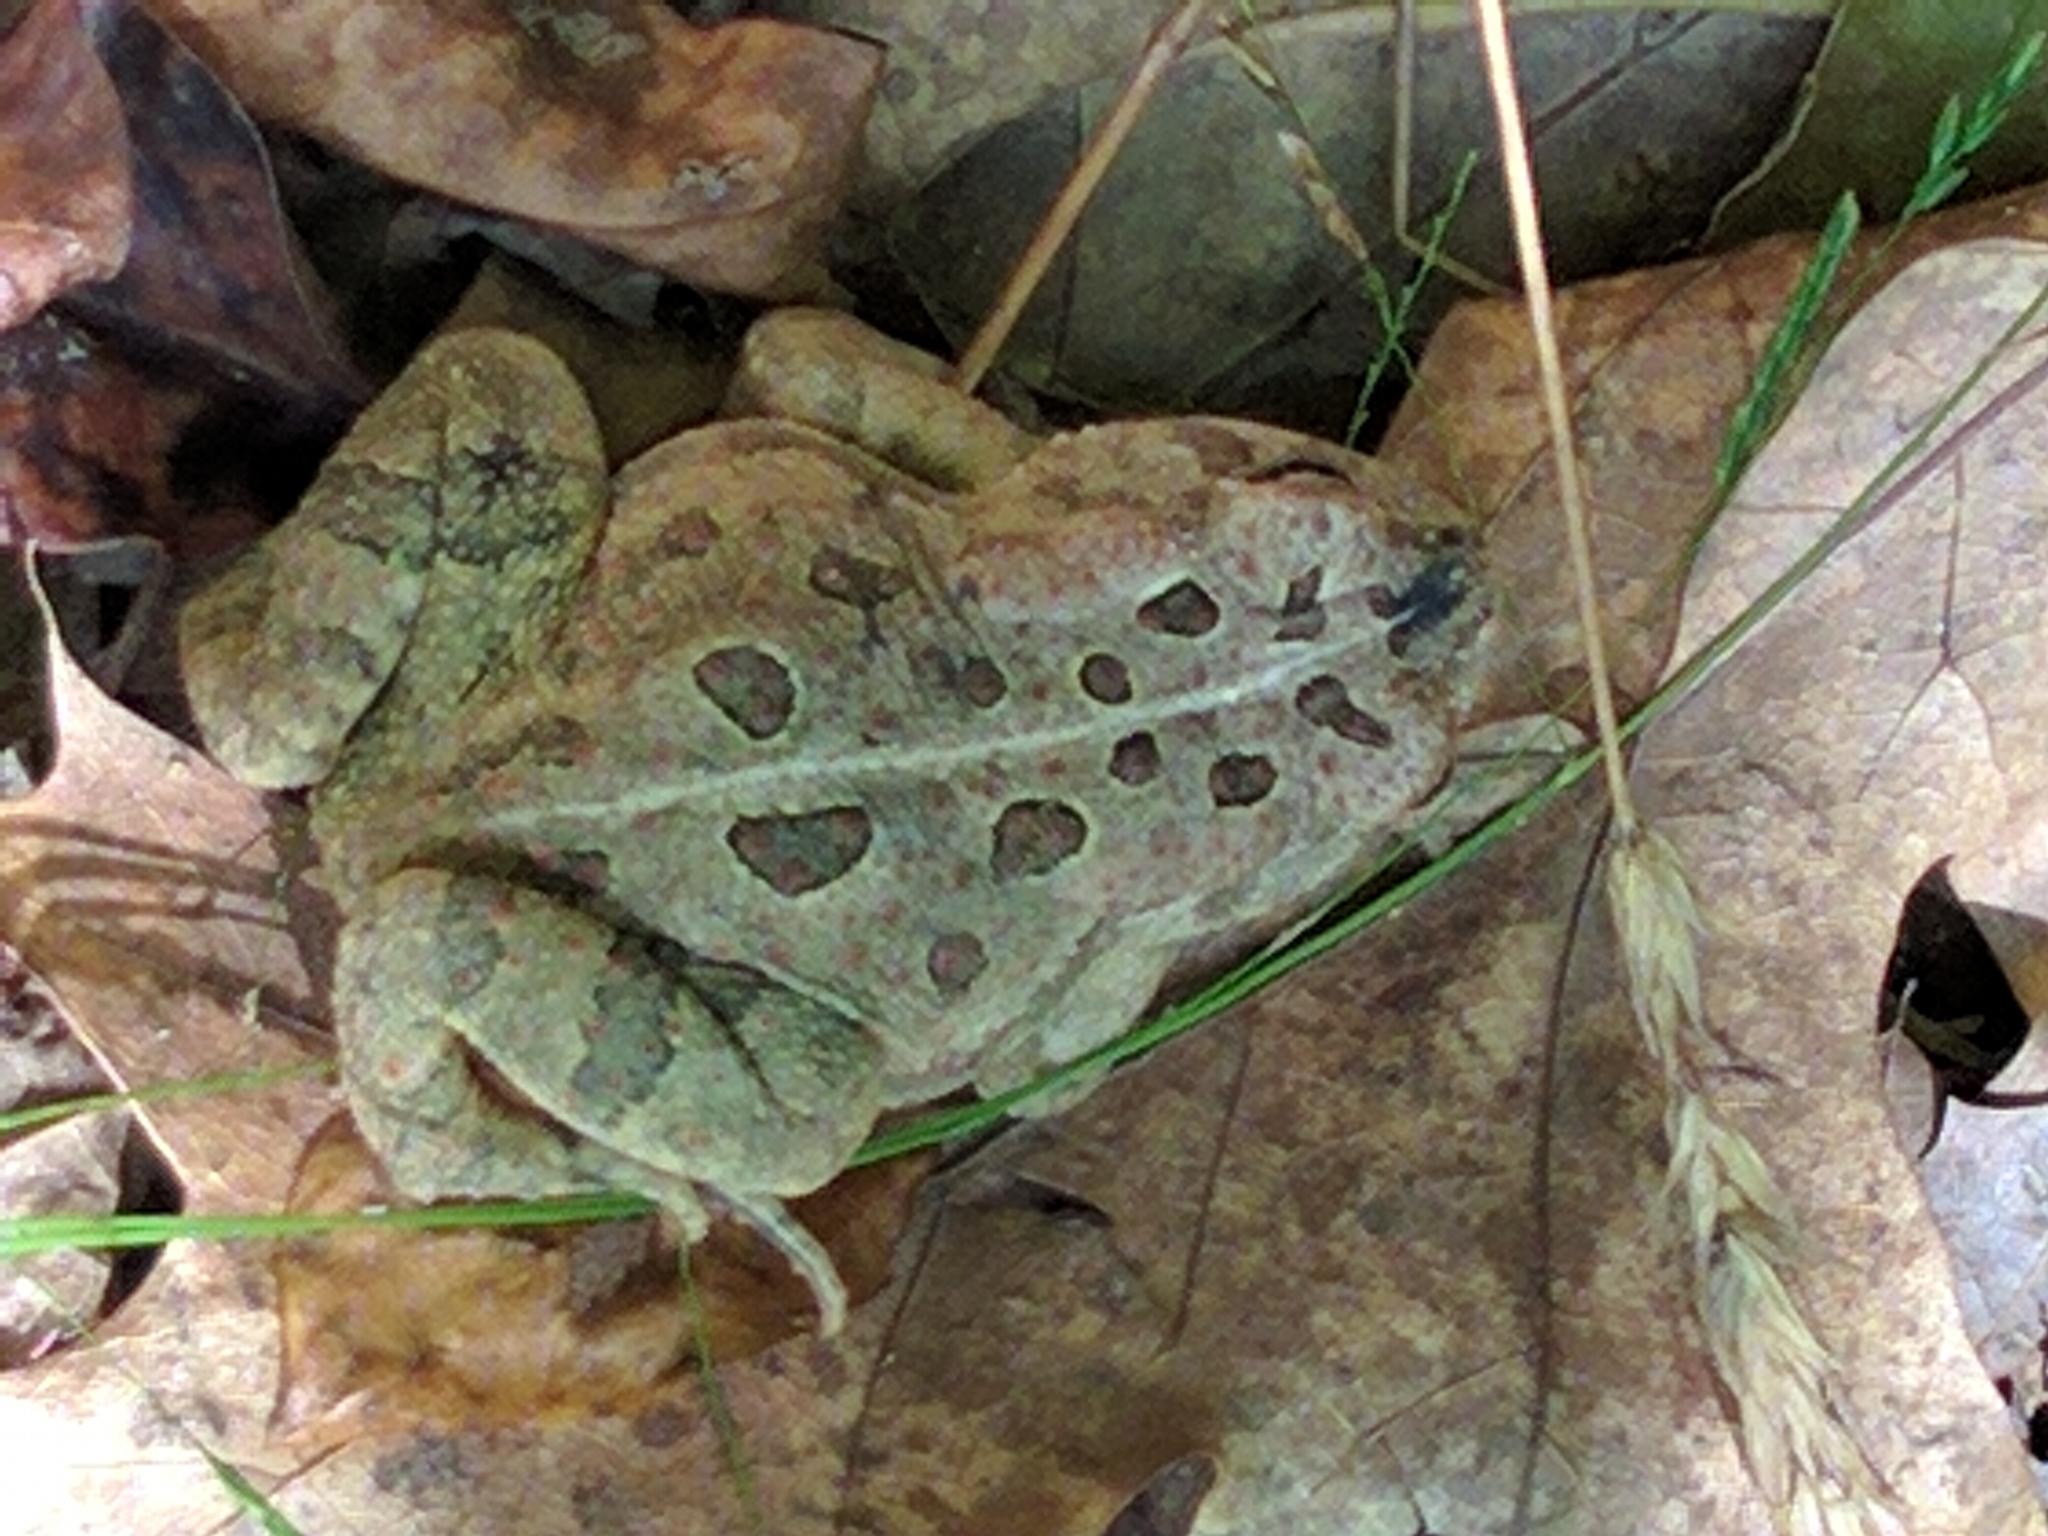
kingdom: Animalia
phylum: Chordata
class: Amphibia
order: Anura
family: Bufonidae
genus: Anaxyrus
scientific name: Anaxyrus fowleri
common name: Fowler's toad
